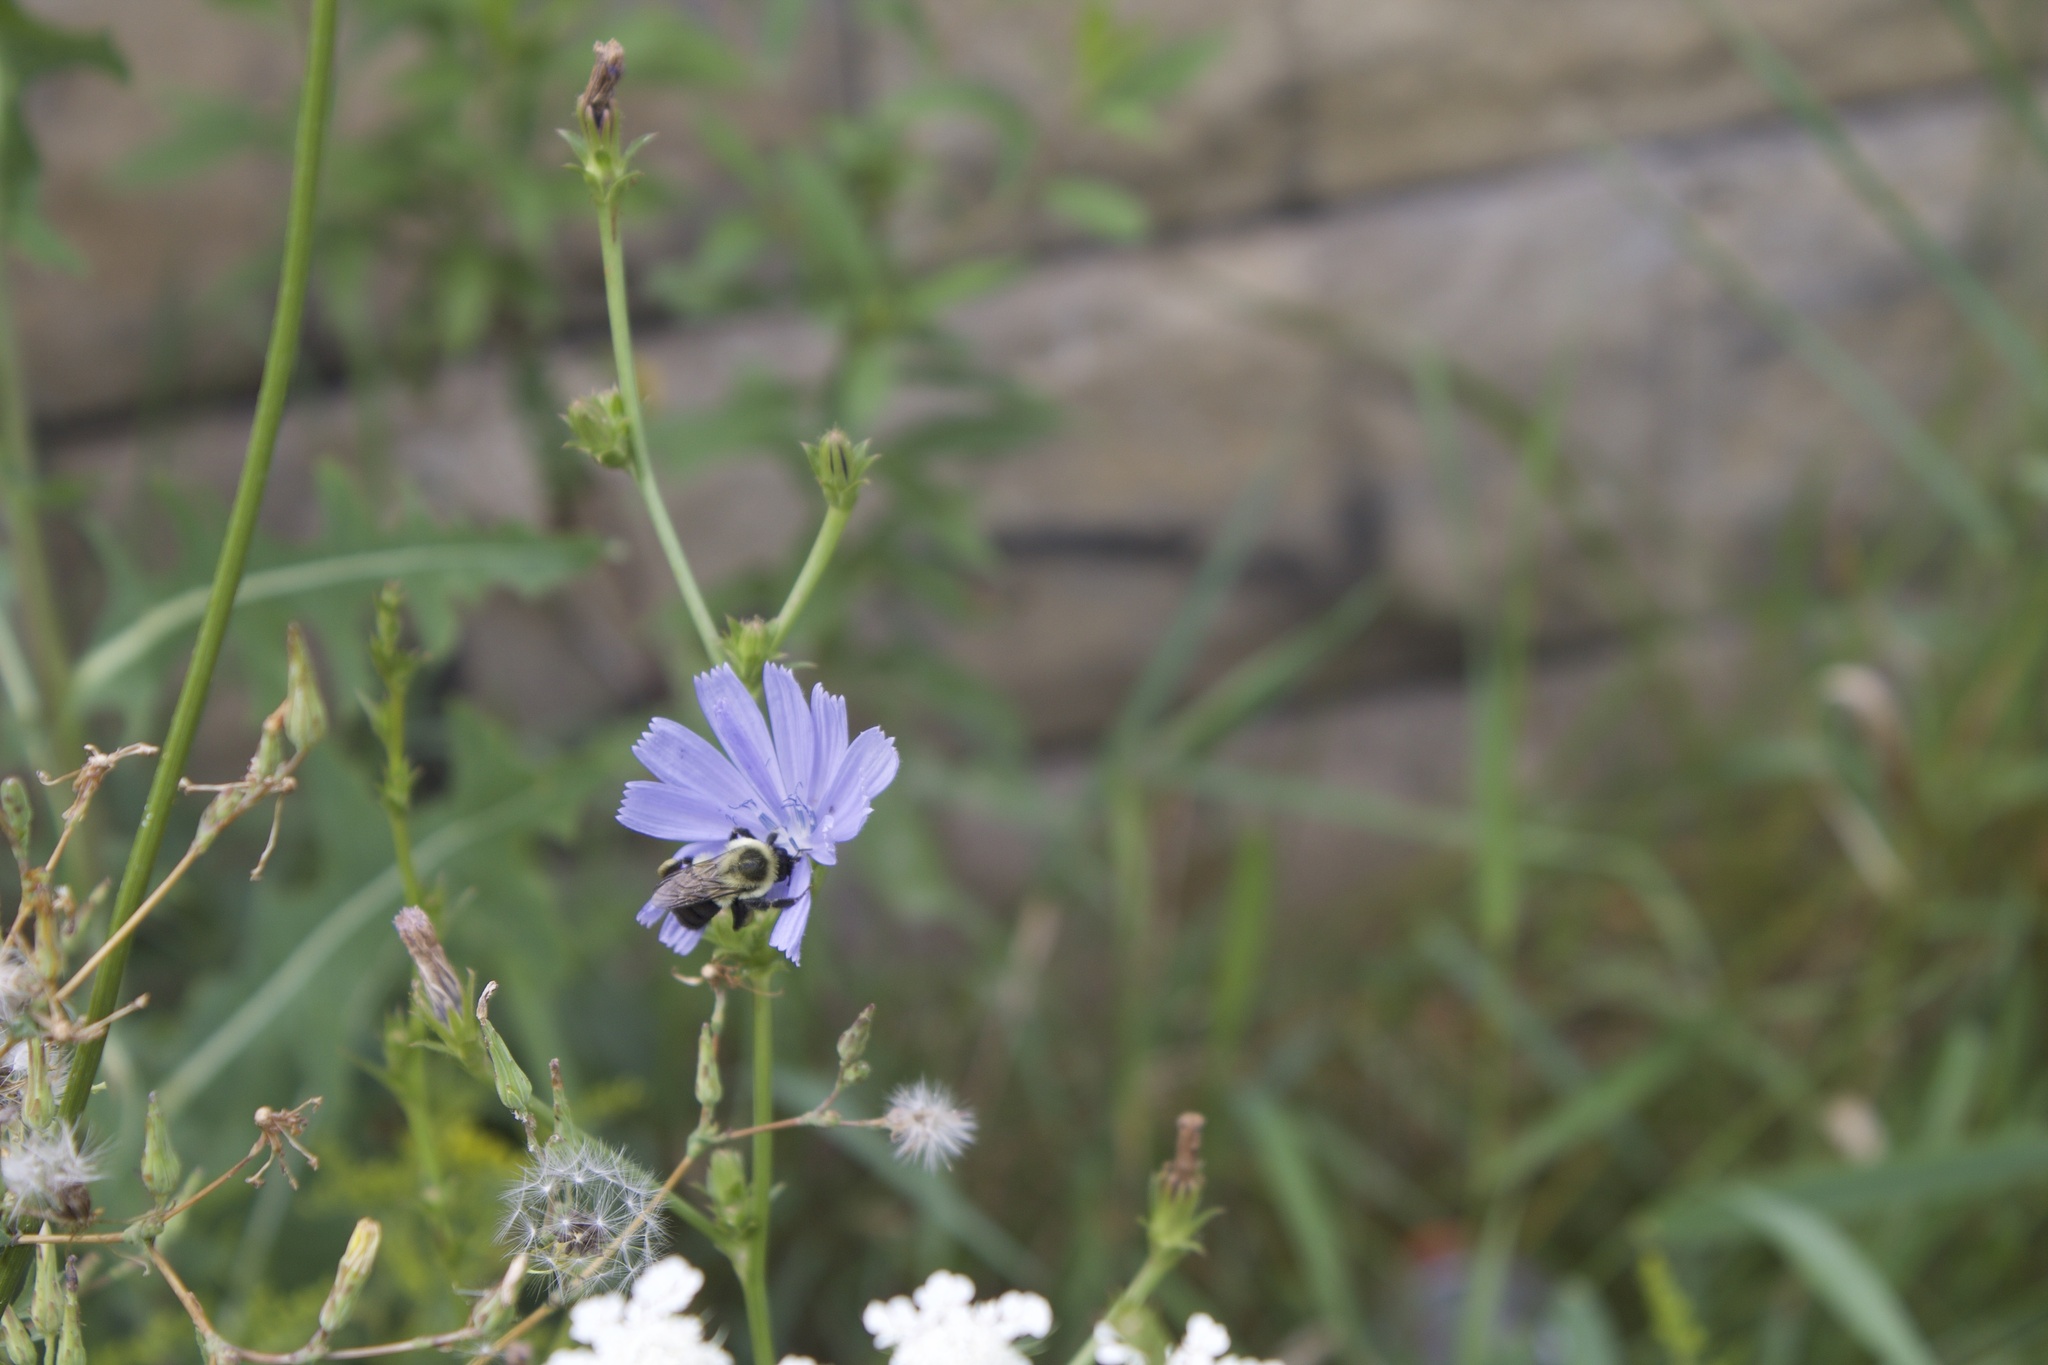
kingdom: Animalia
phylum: Arthropoda
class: Insecta
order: Hymenoptera
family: Apidae
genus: Bombus
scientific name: Bombus impatiens
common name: Common eastern bumble bee
